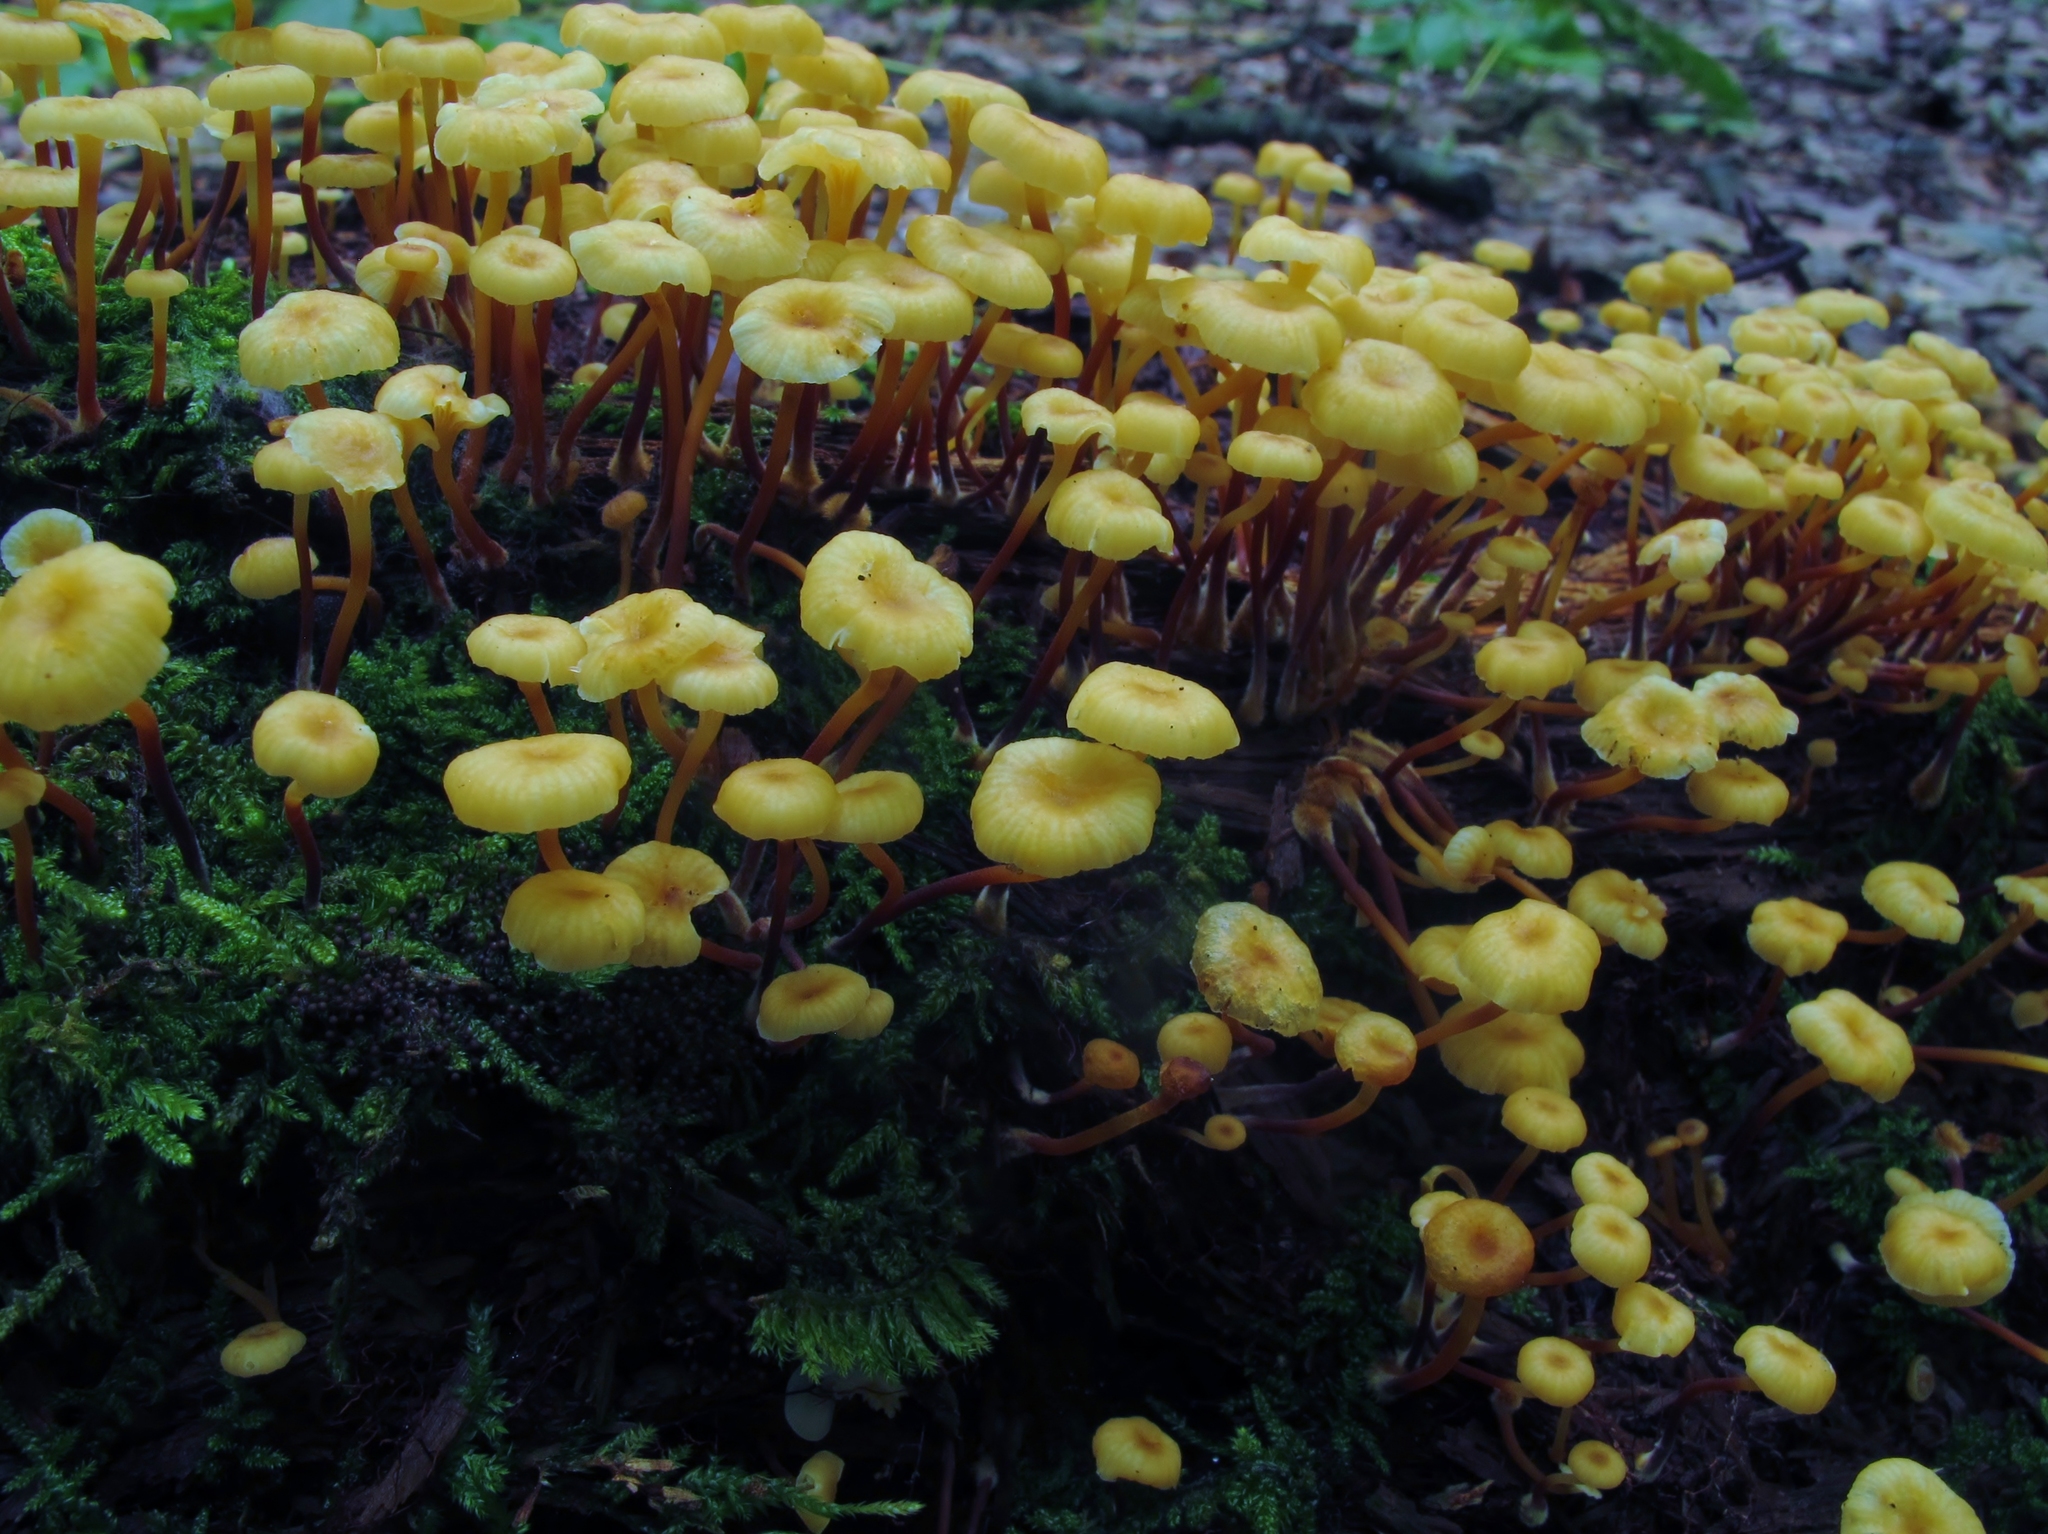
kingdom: Fungi
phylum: Basidiomycota
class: Agaricomycetes
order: Agaricales
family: Mycenaceae
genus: Xeromphalina
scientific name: Xeromphalina kauffmanii
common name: Cross-veined troop mushroom
